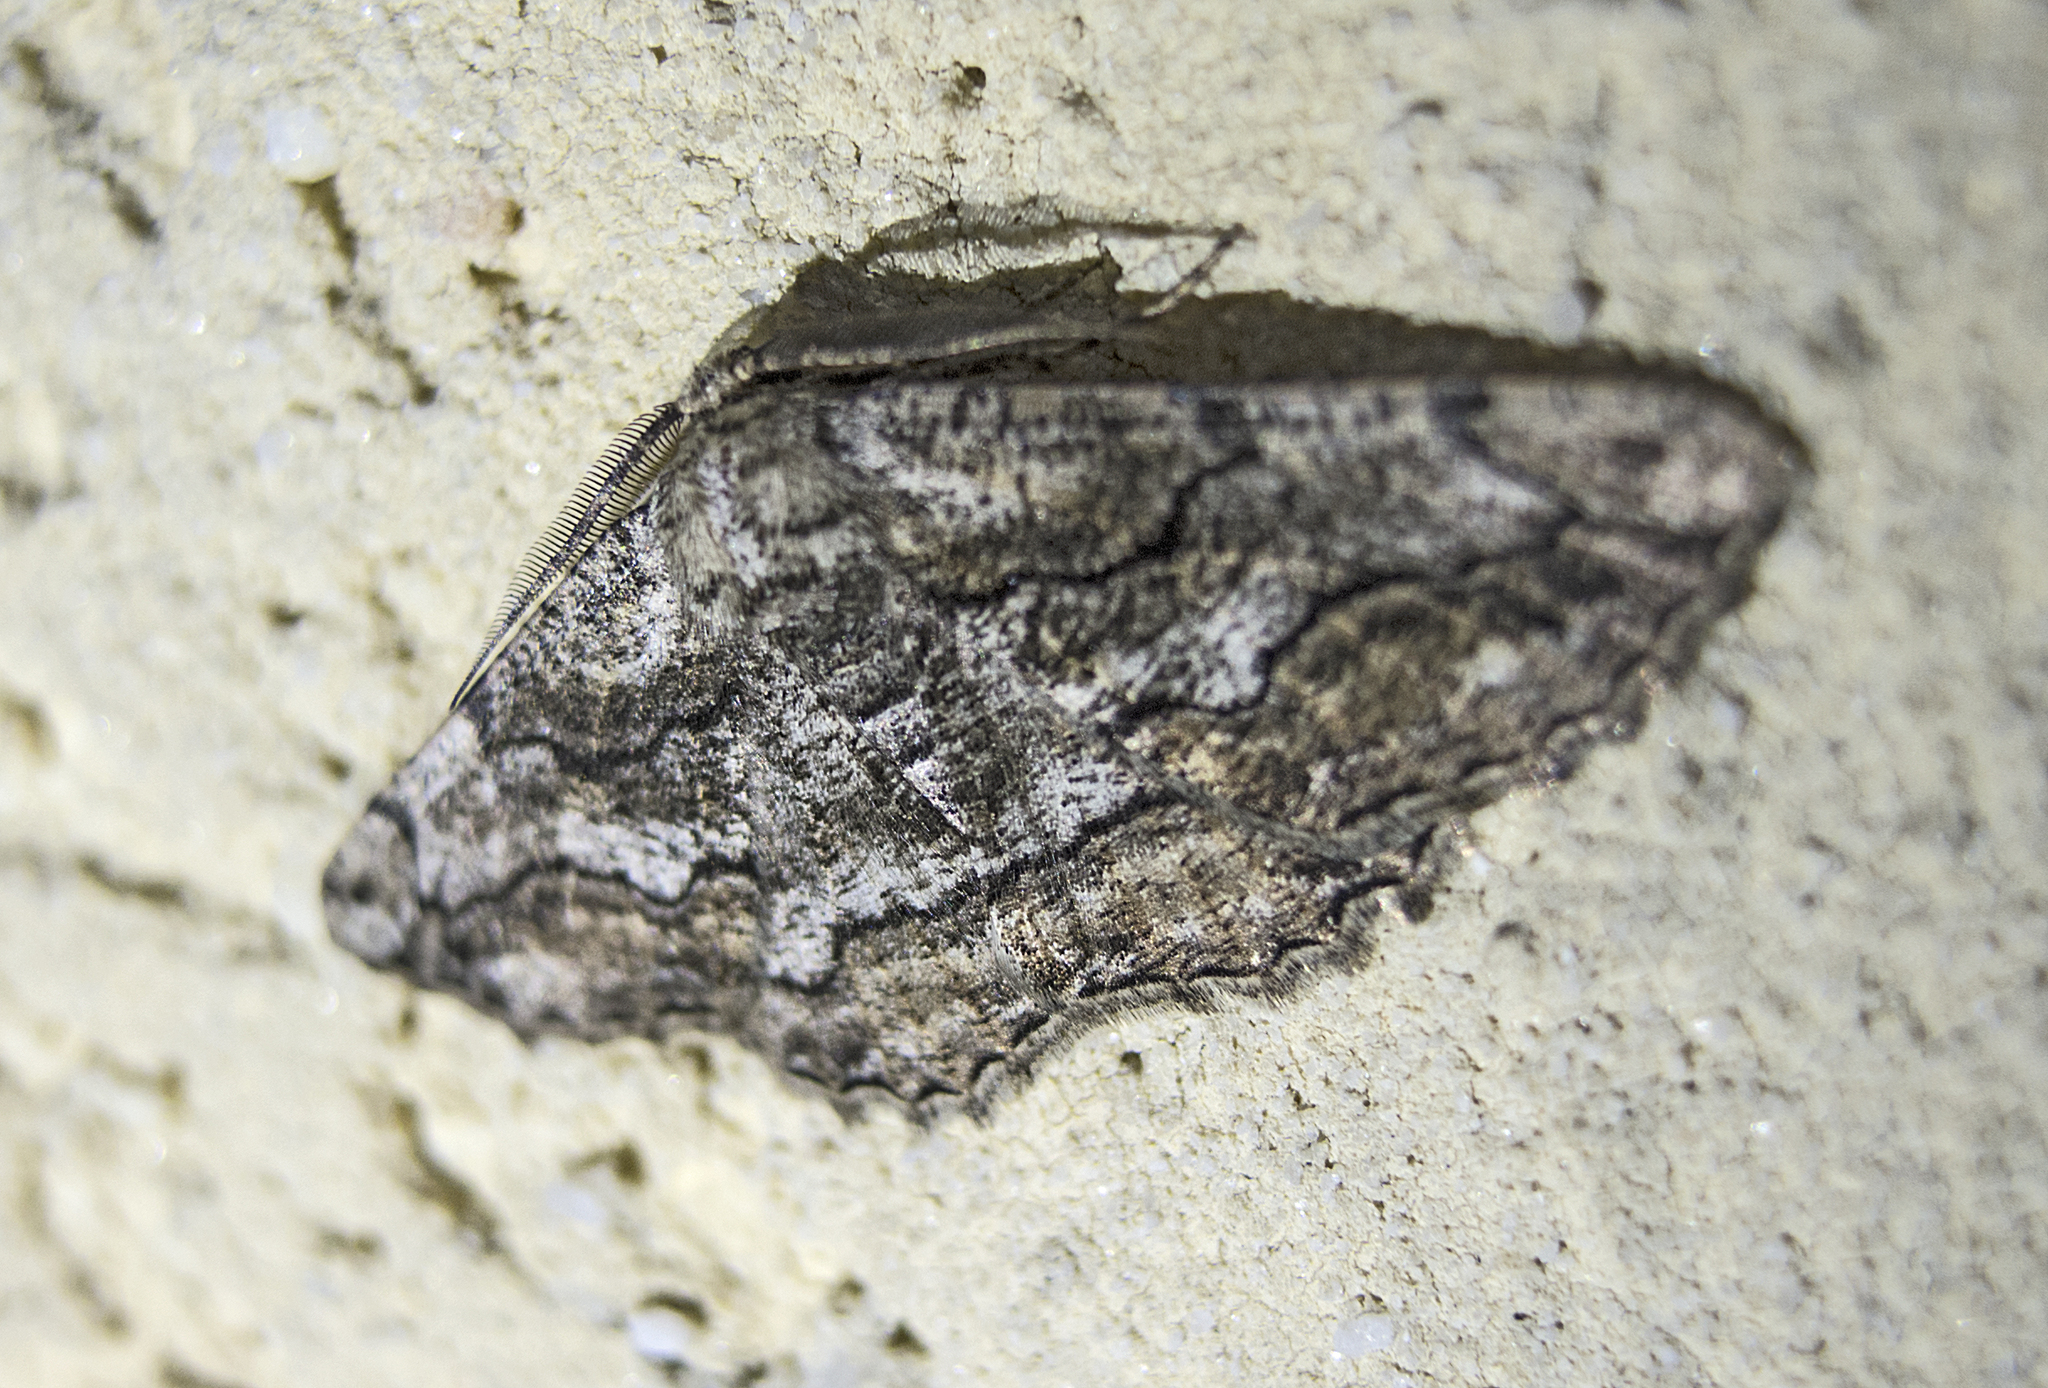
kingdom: Animalia
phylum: Arthropoda
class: Insecta
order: Lepidoptera
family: Geometridae
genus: Synopsia
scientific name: Synopsia sociaria
